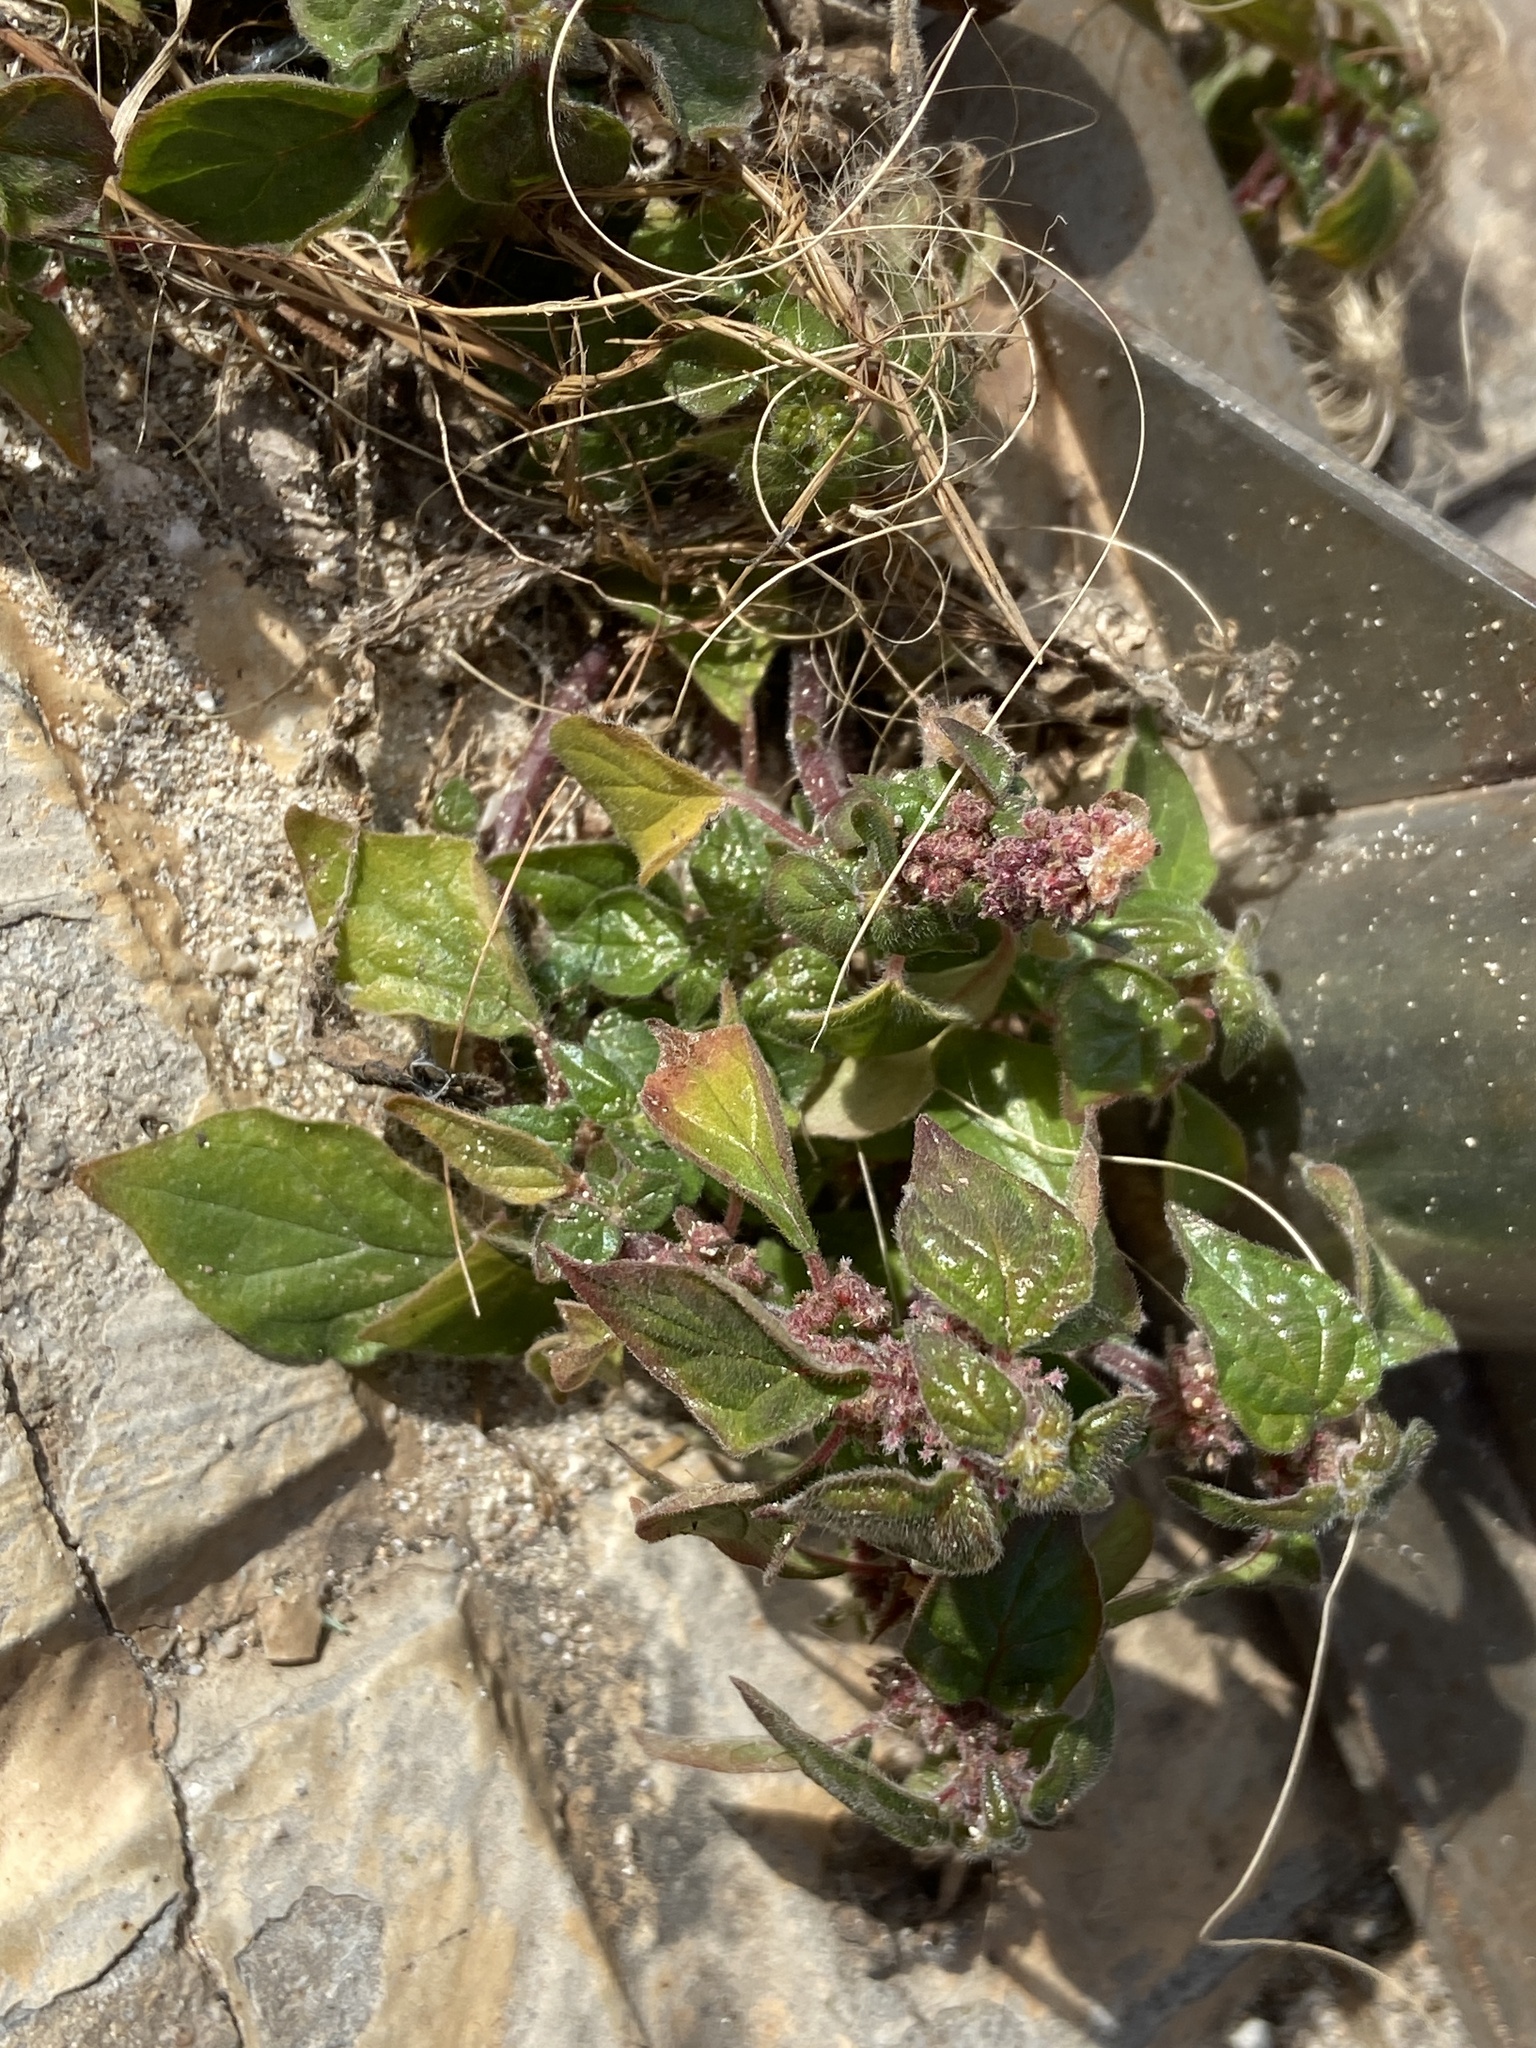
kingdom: Plantae
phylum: Tracheophyta
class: Magnoliopsida
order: Rosales
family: Urticaceae
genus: Parietaria
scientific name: Parietaria judaica
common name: Pellitory-of-the-wall
